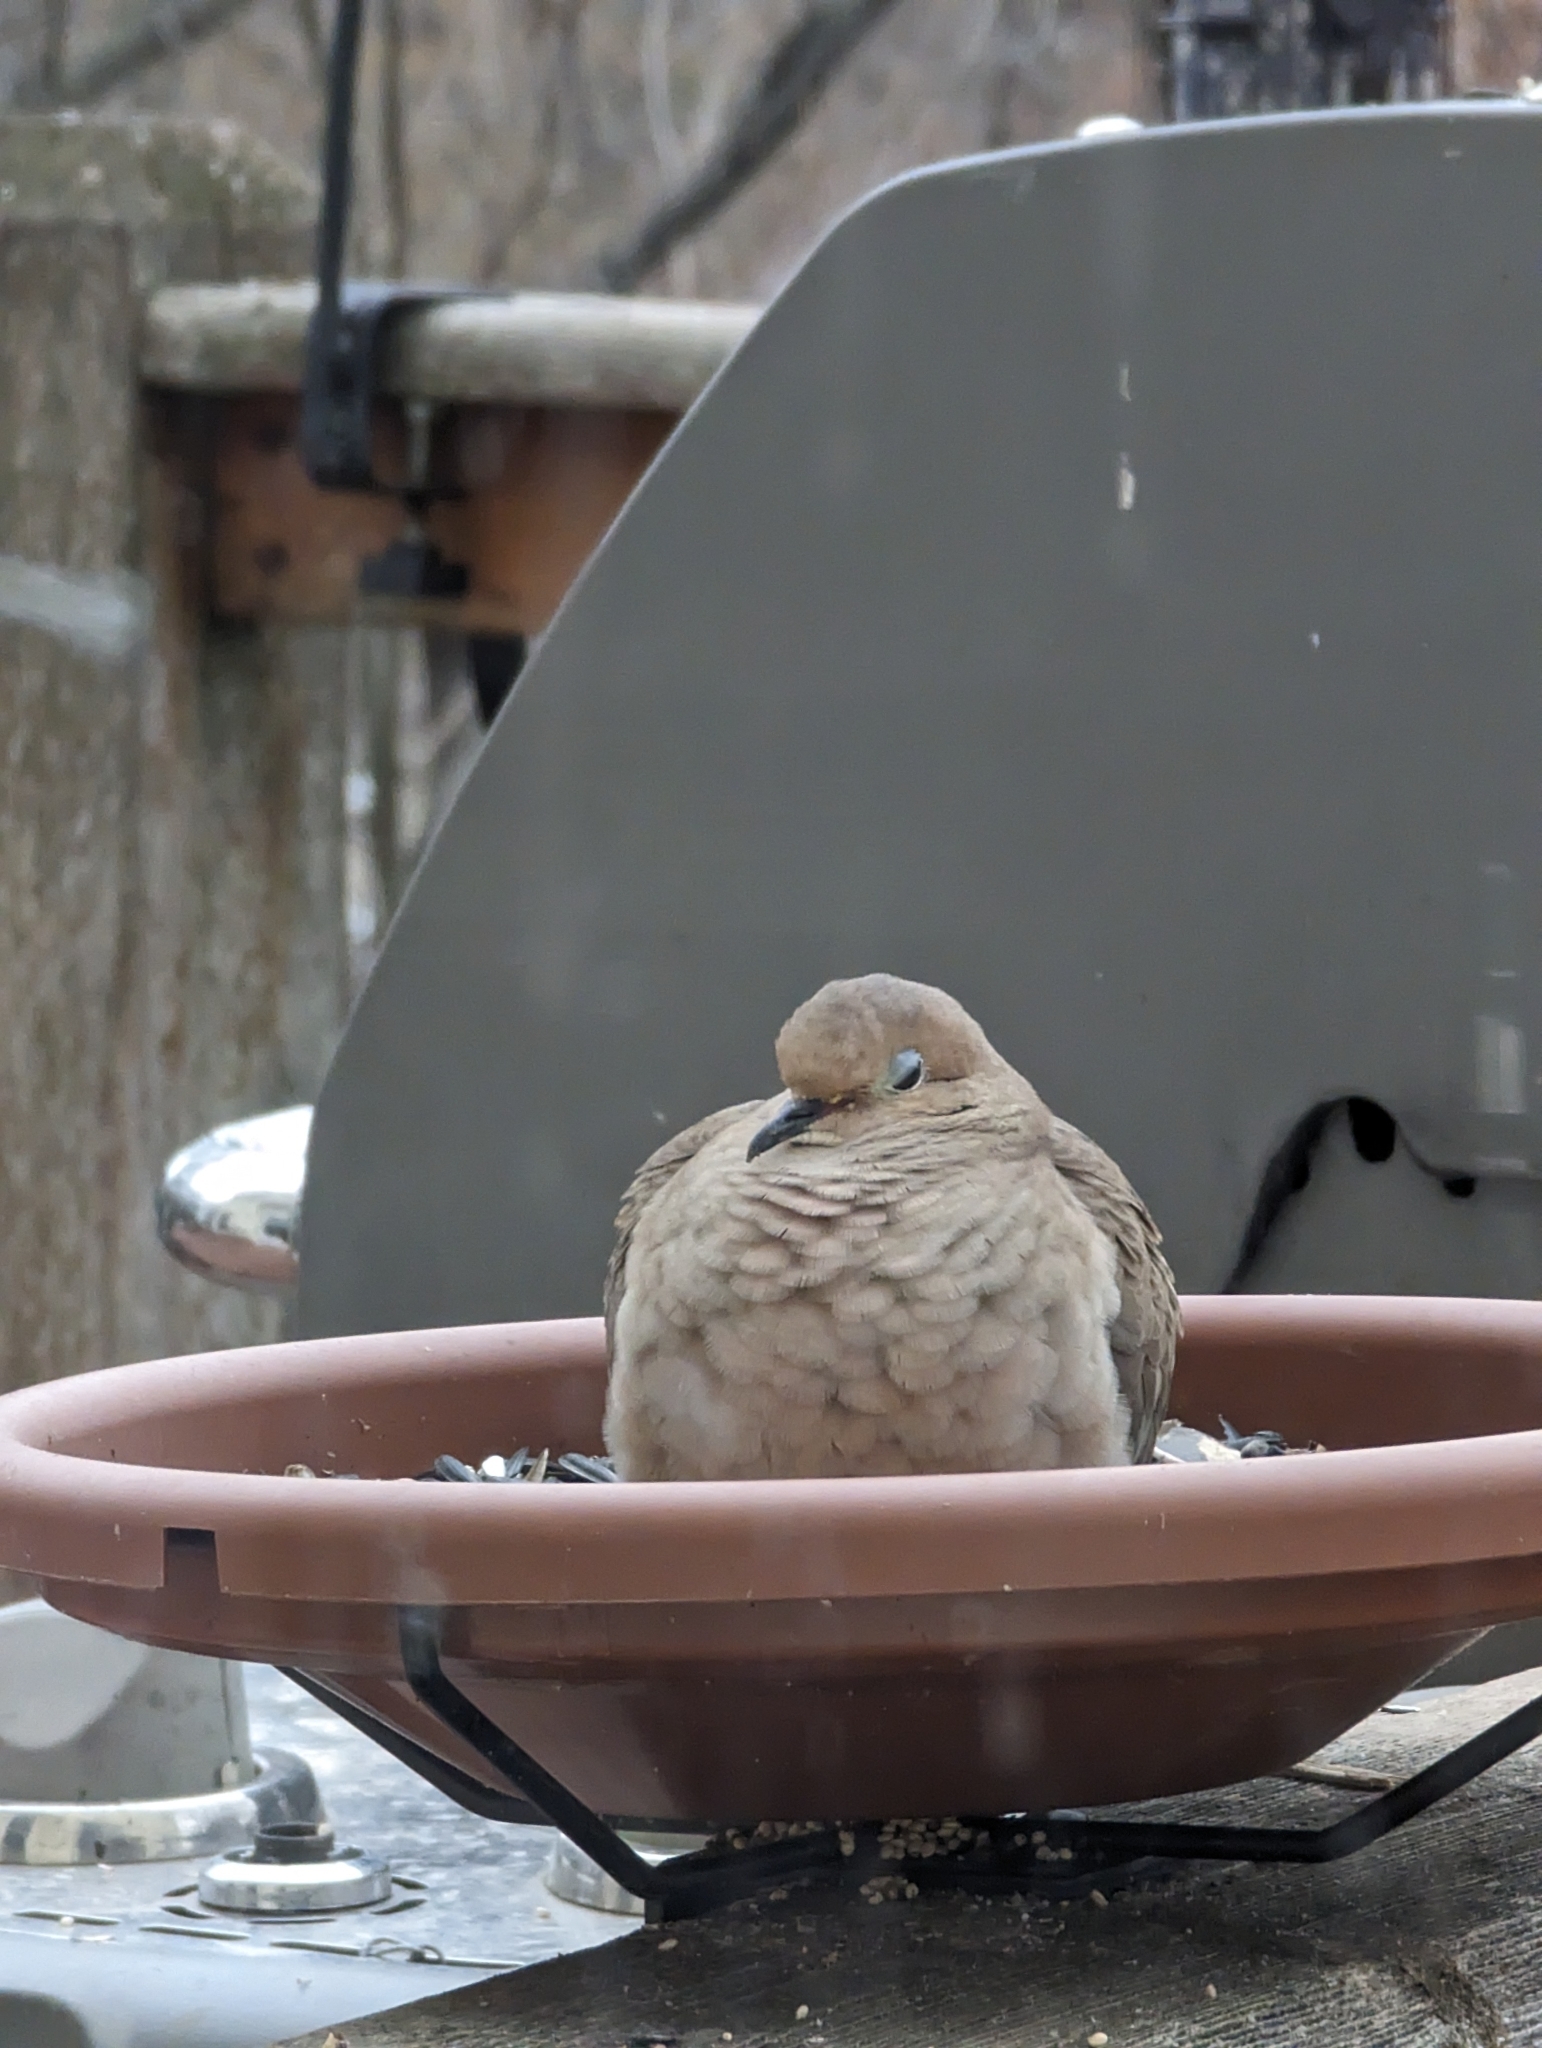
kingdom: Animalia
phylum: Chordata
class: Aves
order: Columbiformes
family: Columbidae
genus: Zenaida
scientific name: Zenaida macroura
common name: Mourning dove
